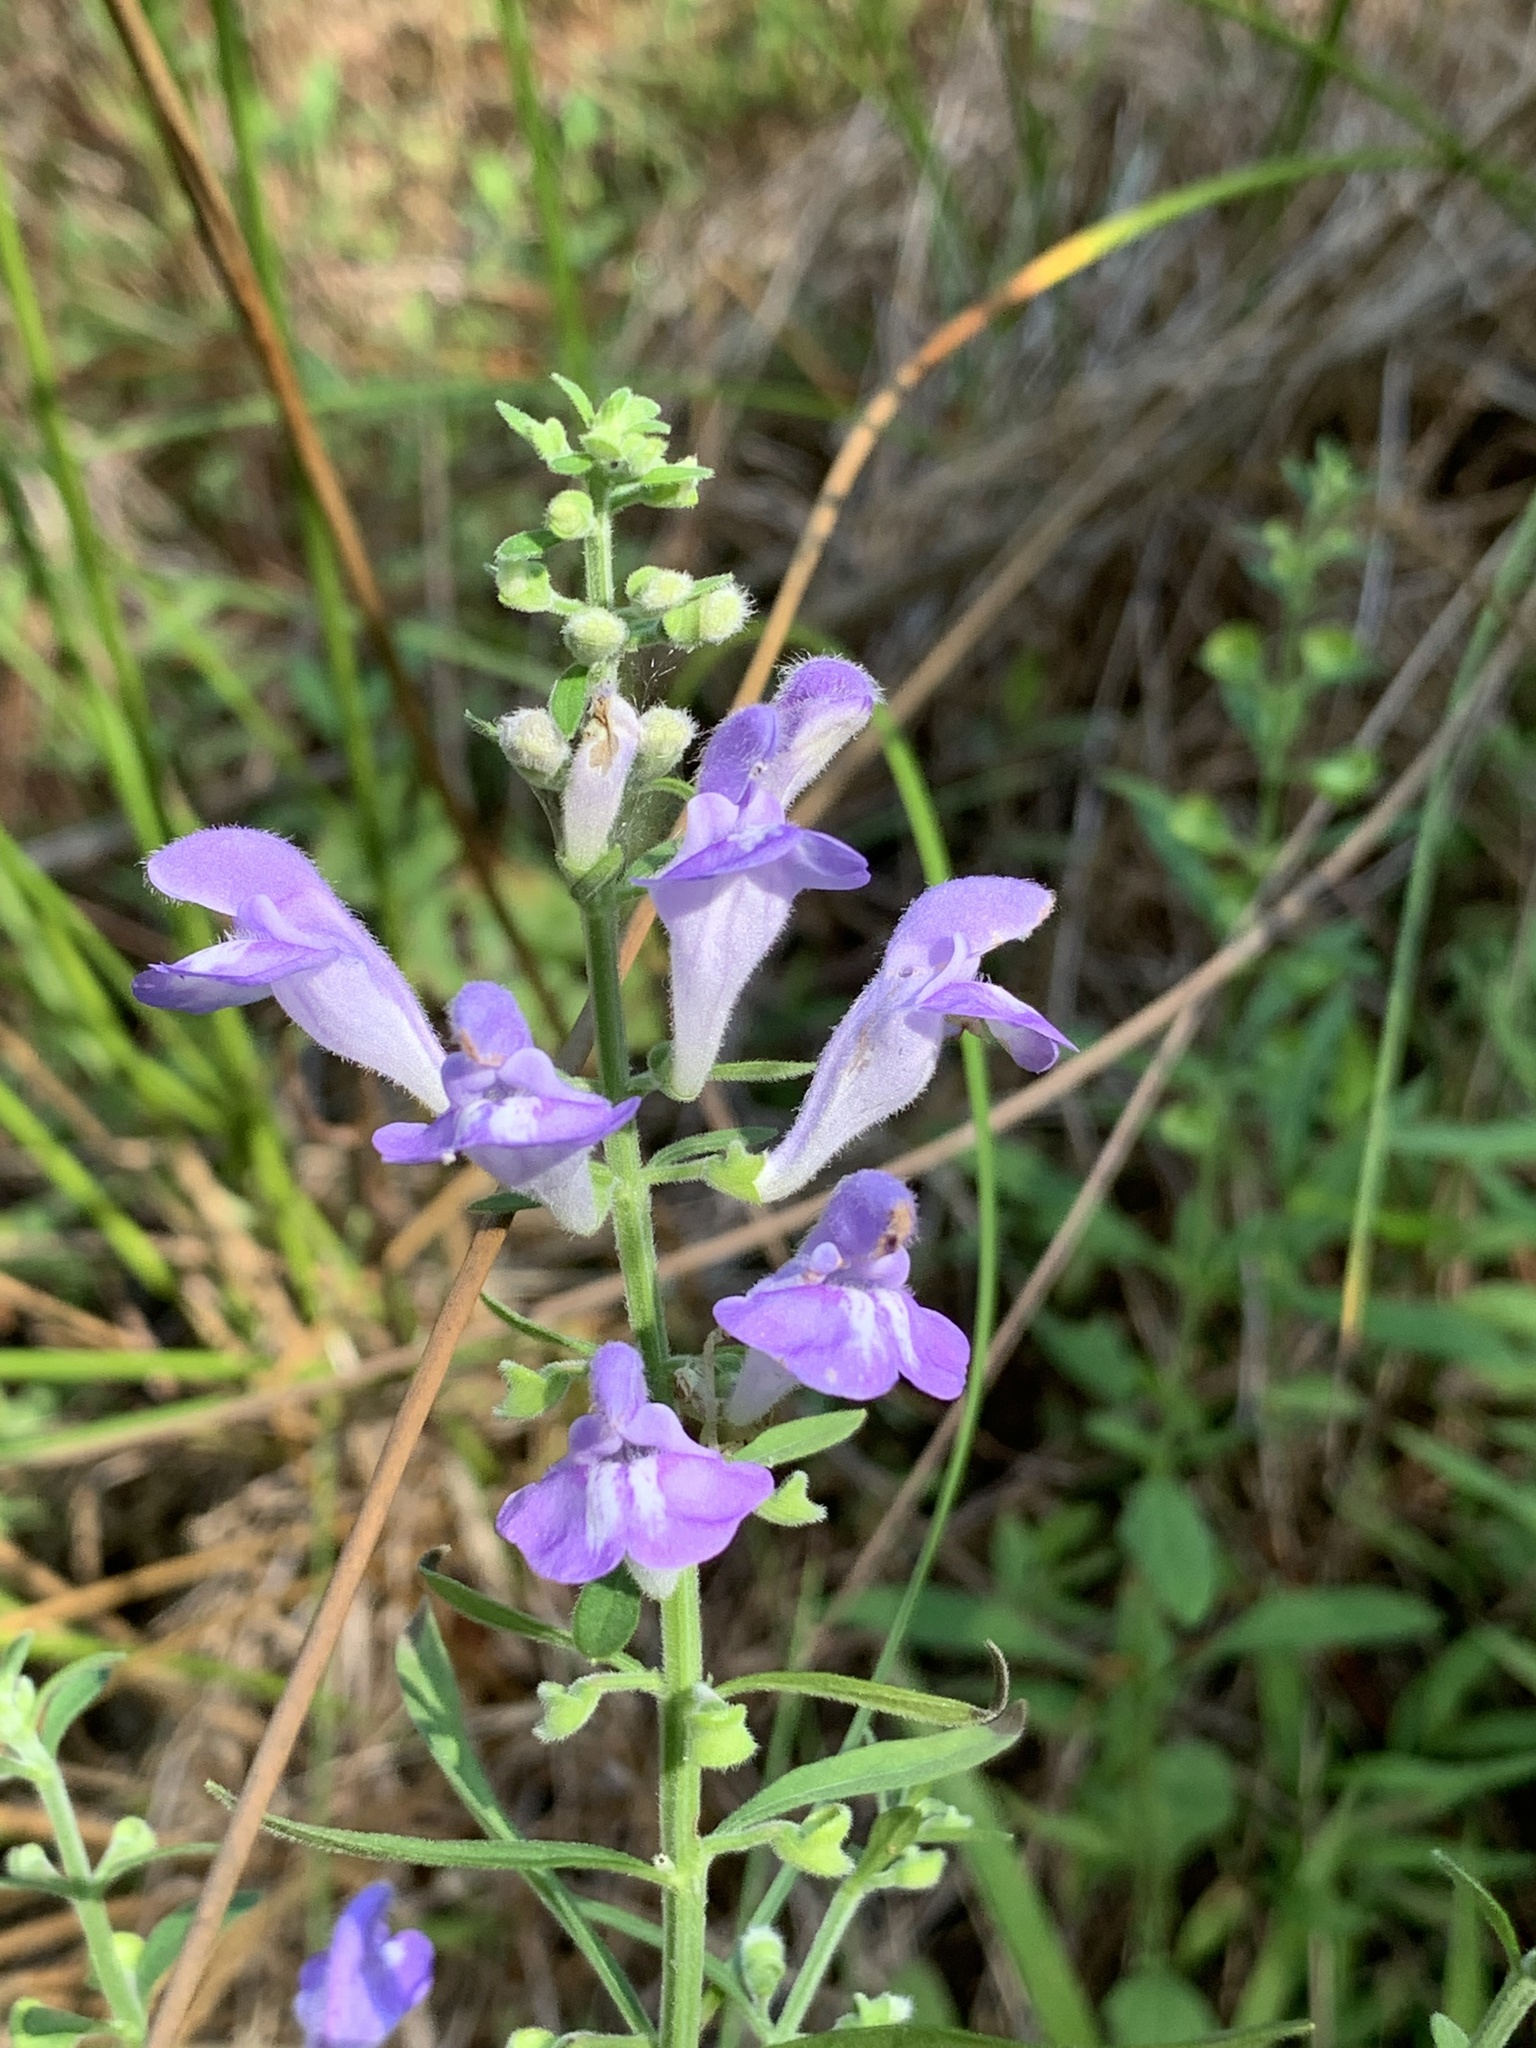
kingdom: Plantae
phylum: Tracheophyta
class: Magnoliopsida
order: Lamiales
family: Lamiaceae
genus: Scutellaria
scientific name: Scutellaria integrifolia
